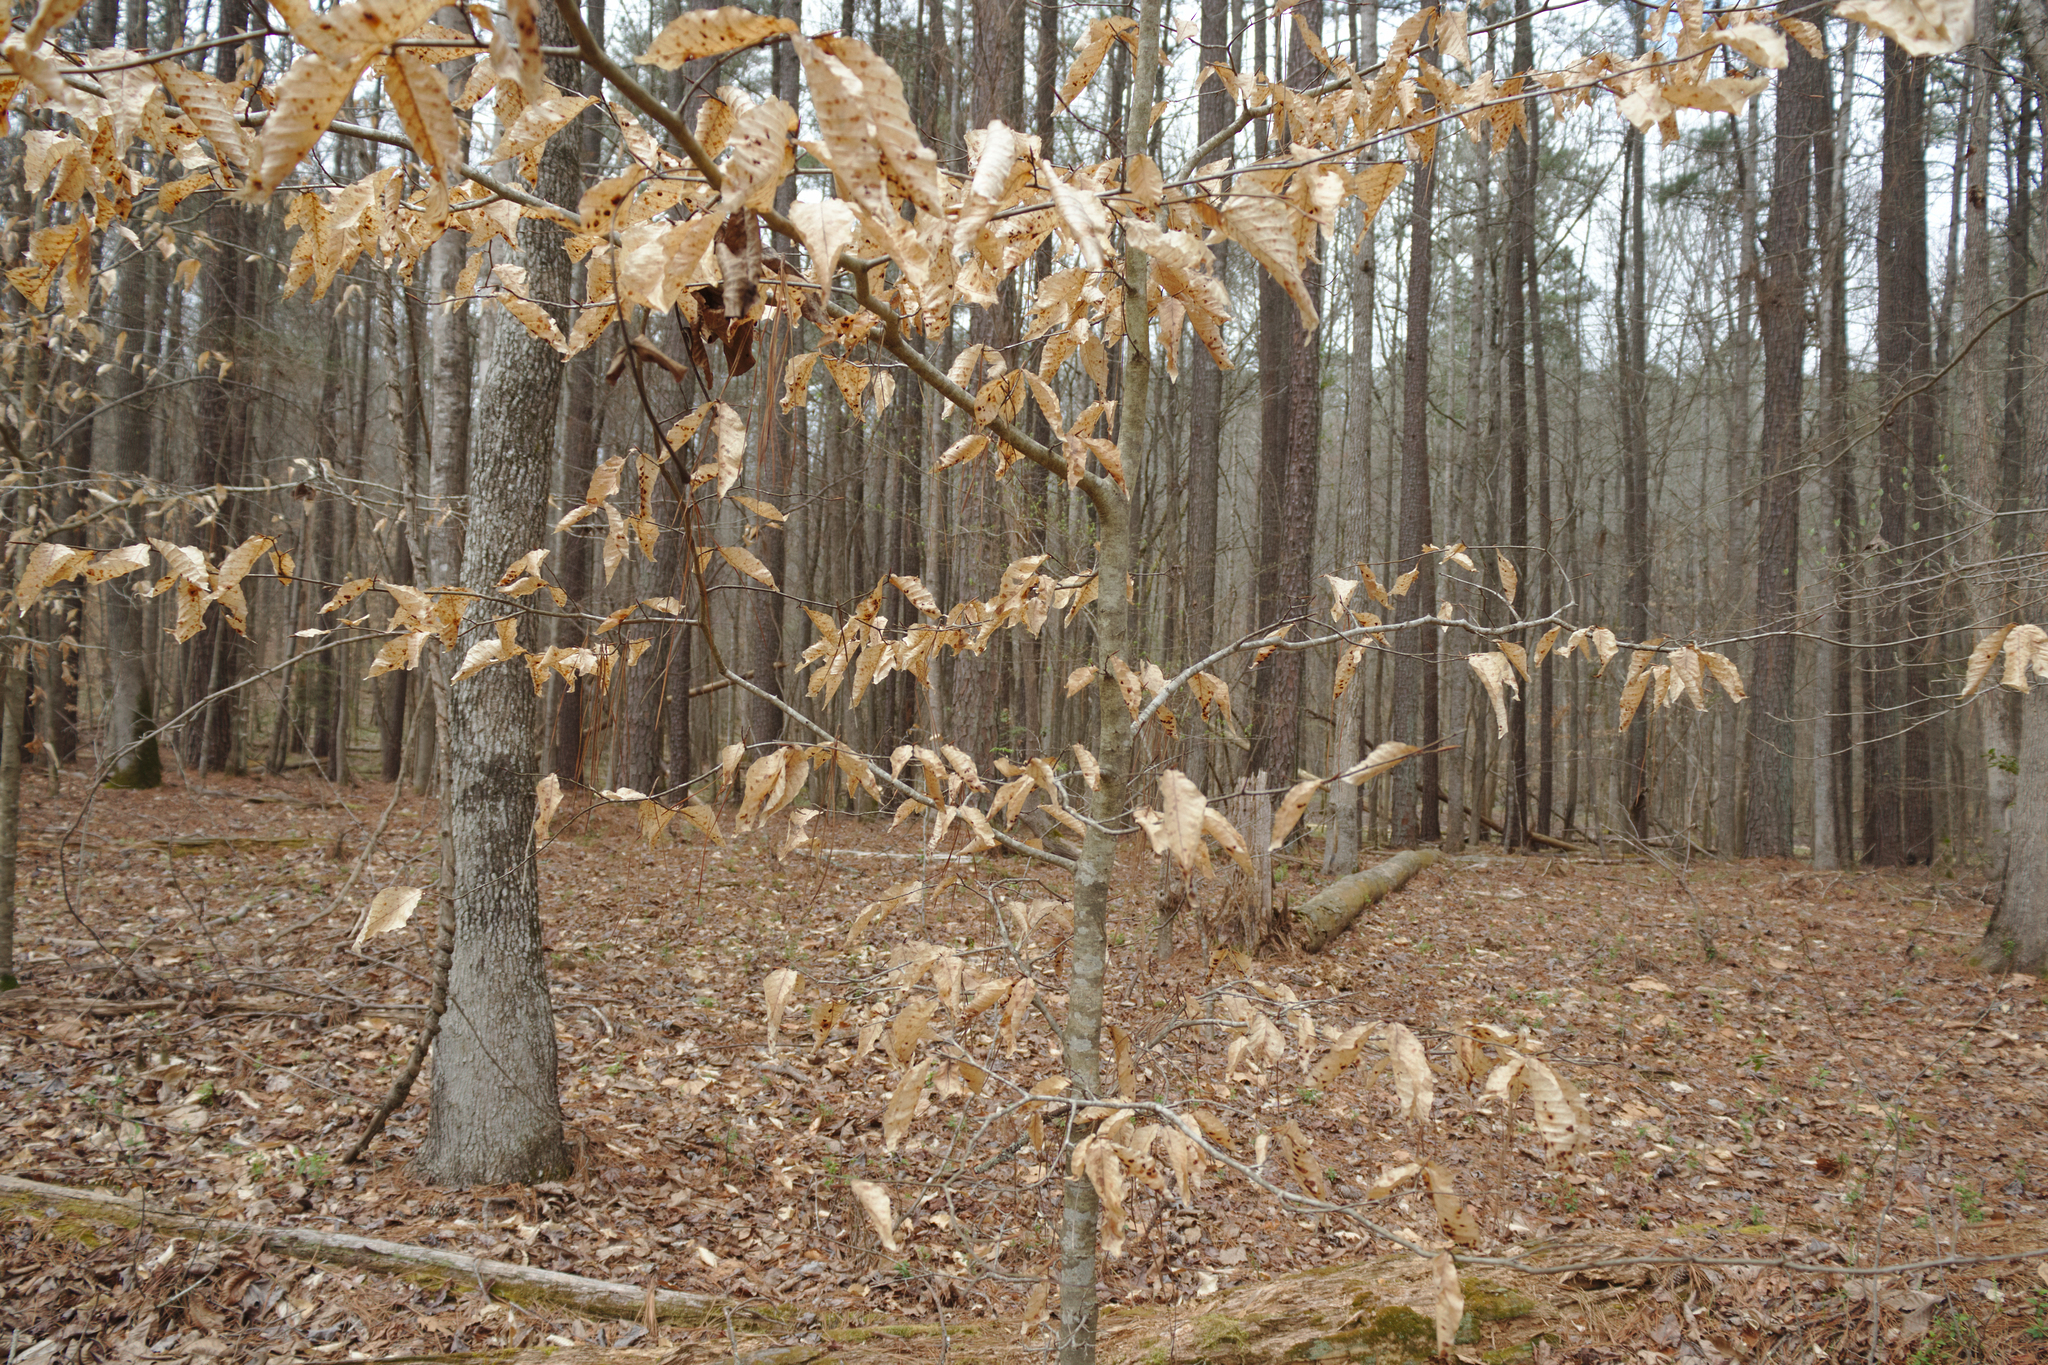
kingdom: Plantae
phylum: Tracheophyta
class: Magnoliopsida
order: Fagales
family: Fagaceae
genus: Fagus
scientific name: Fagus grandifolia
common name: American beech
